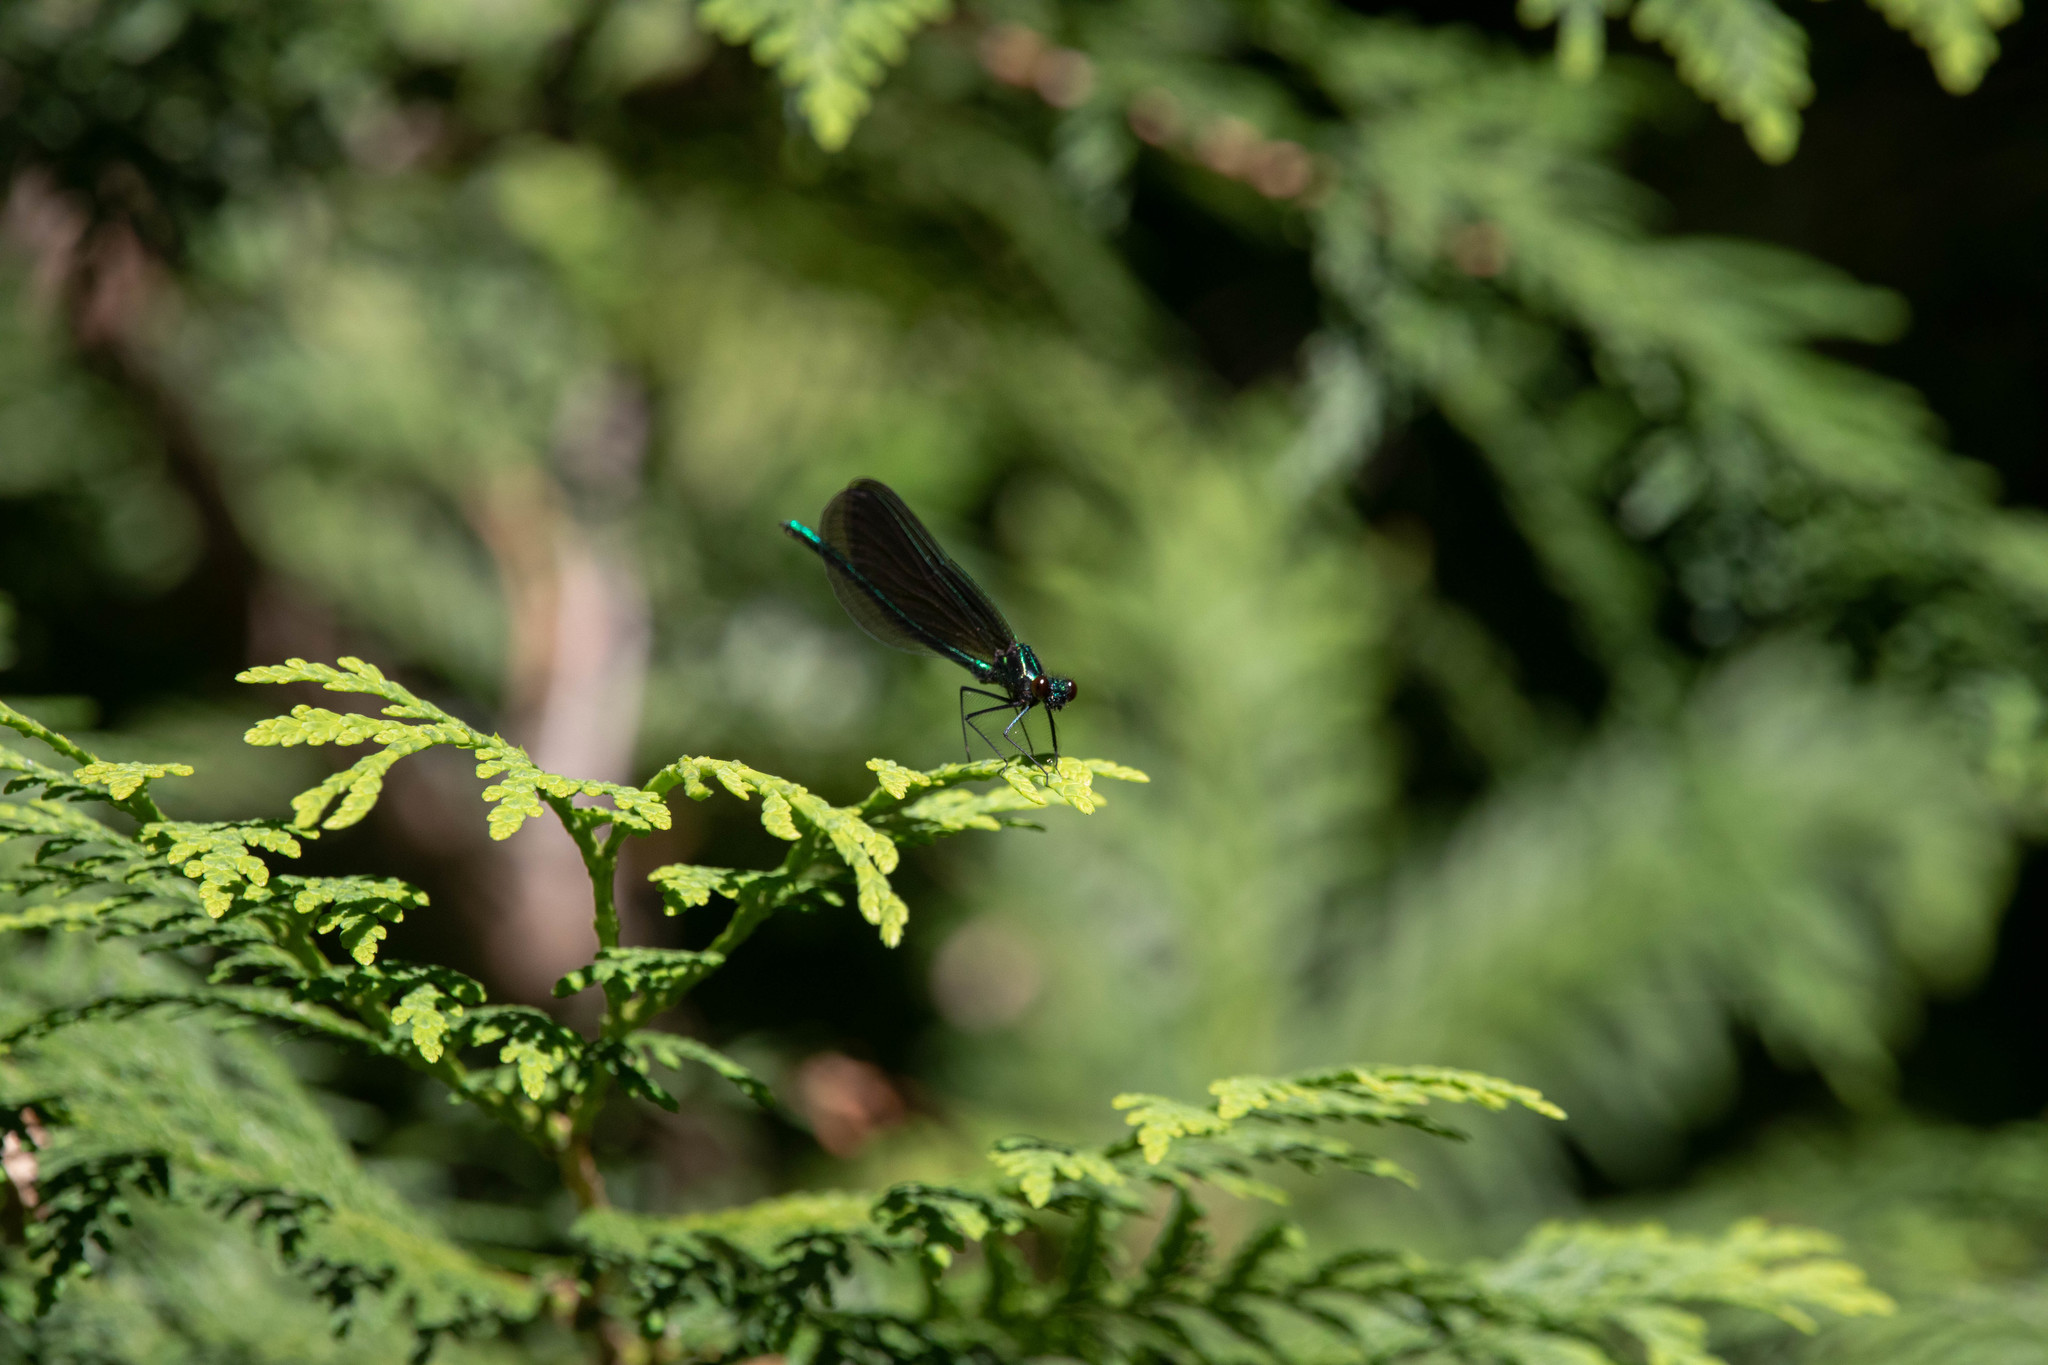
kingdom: Animalia
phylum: Arthropoda
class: Insecta
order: Odonata
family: Calopterygidae
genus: Calopteryx
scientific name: Calopteryx maculata
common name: Ebony jewelwing
